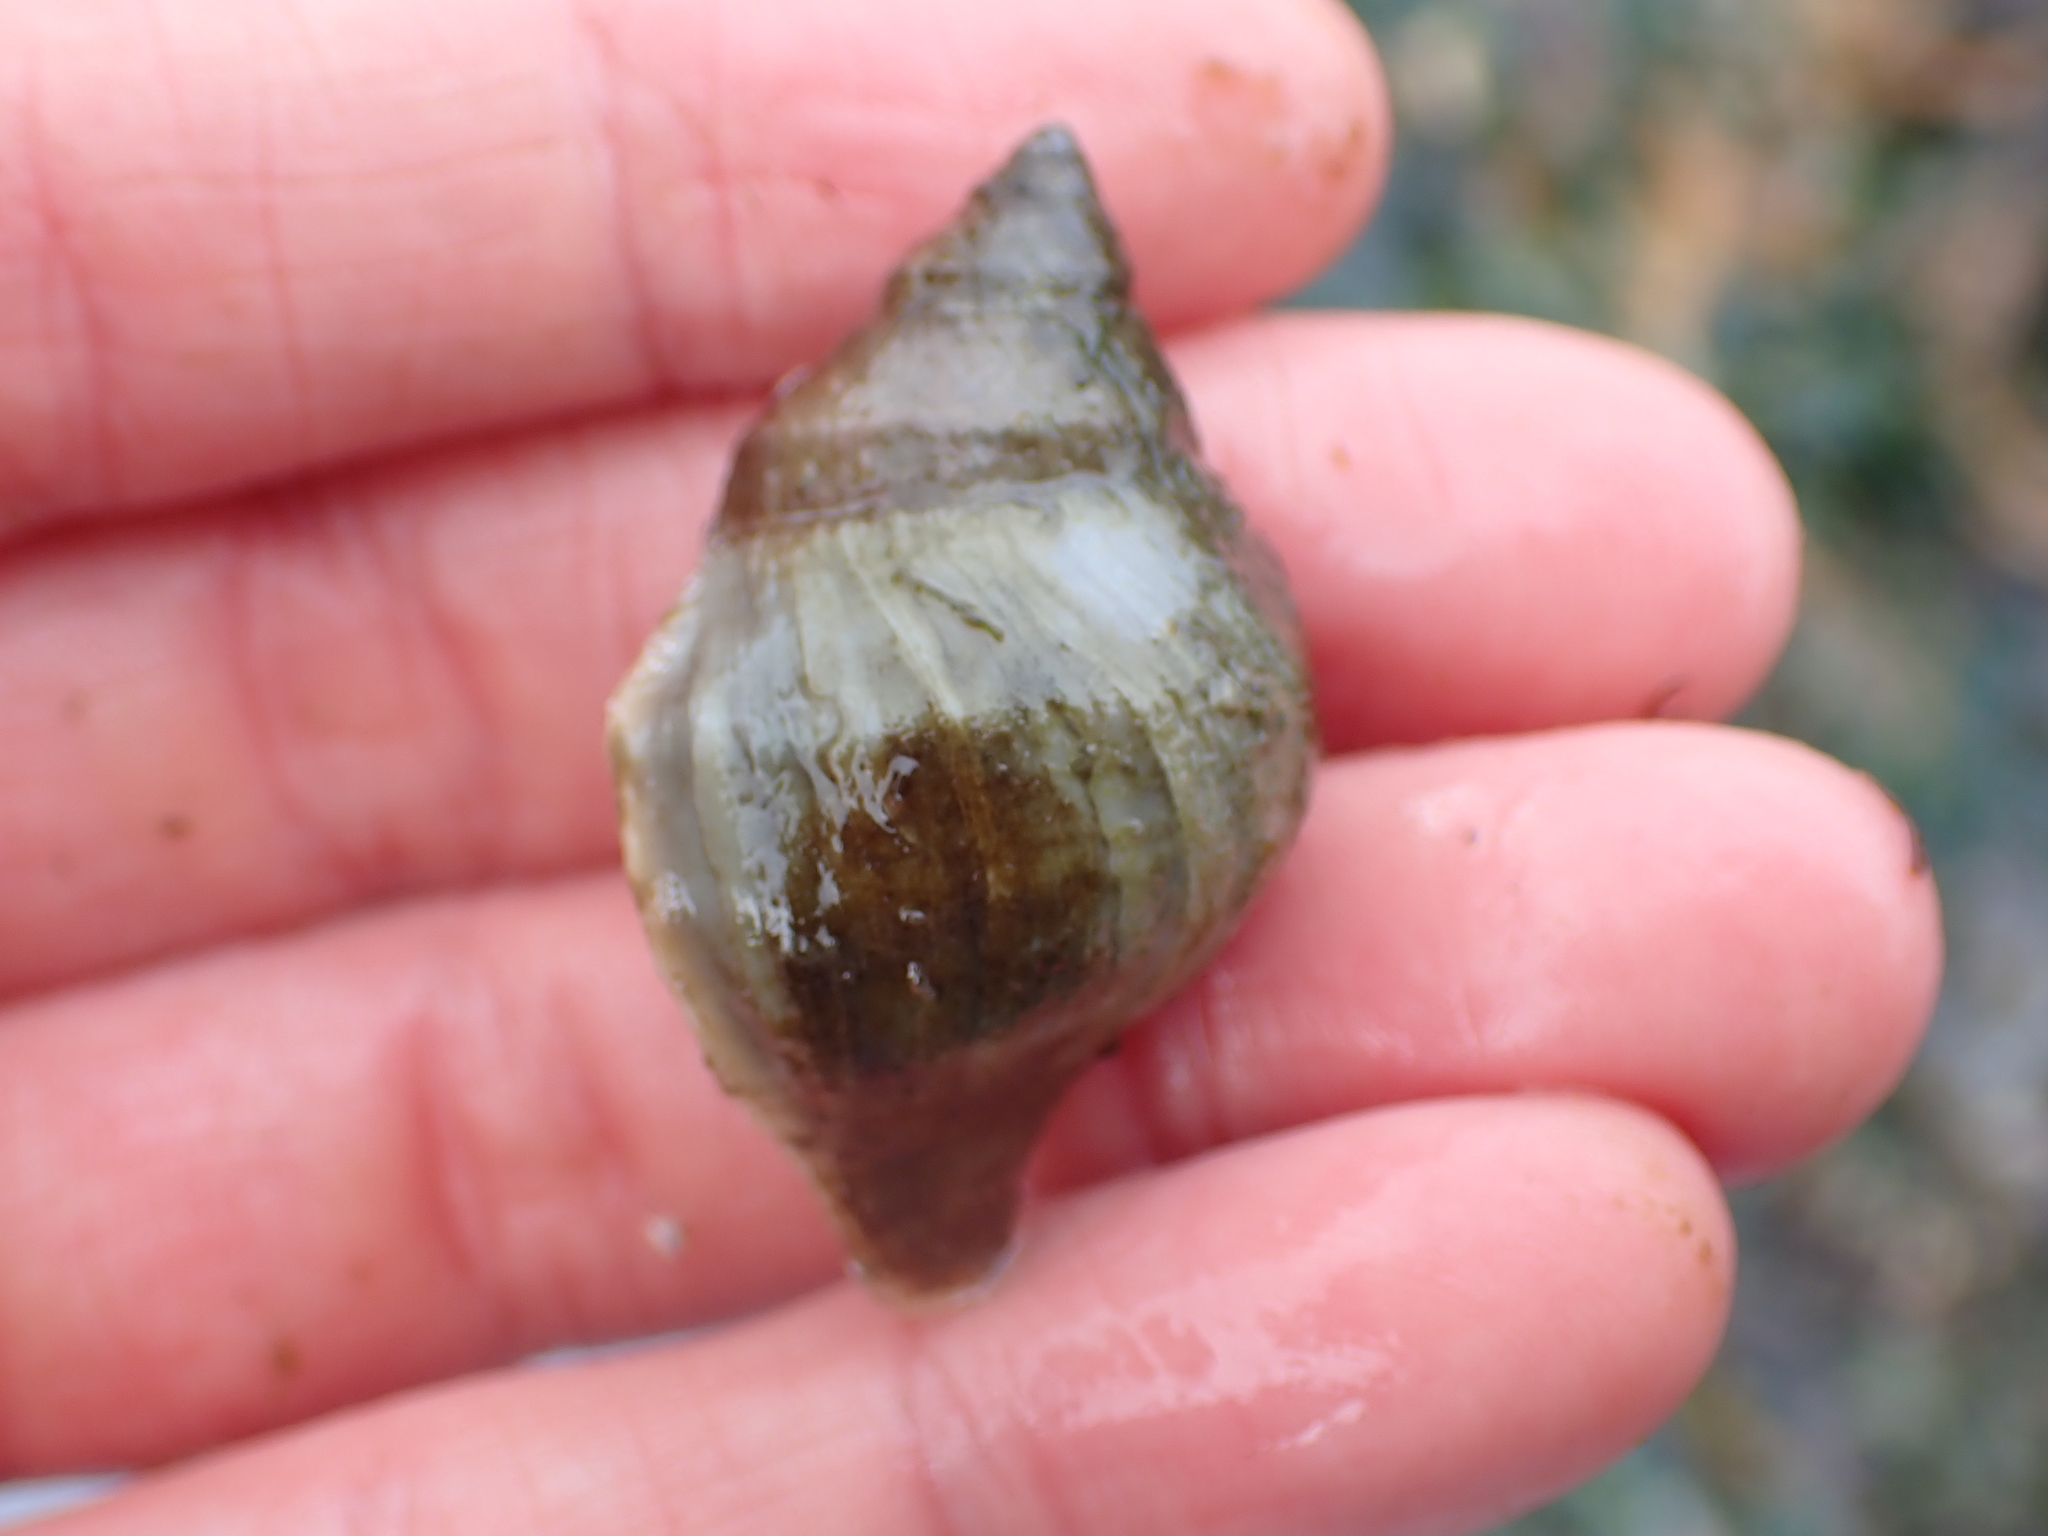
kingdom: Animalia
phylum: Mollusca
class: Gastropoda
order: Neogastropoda
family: Muricidae
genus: Nucella
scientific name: Nucella lamellosa
